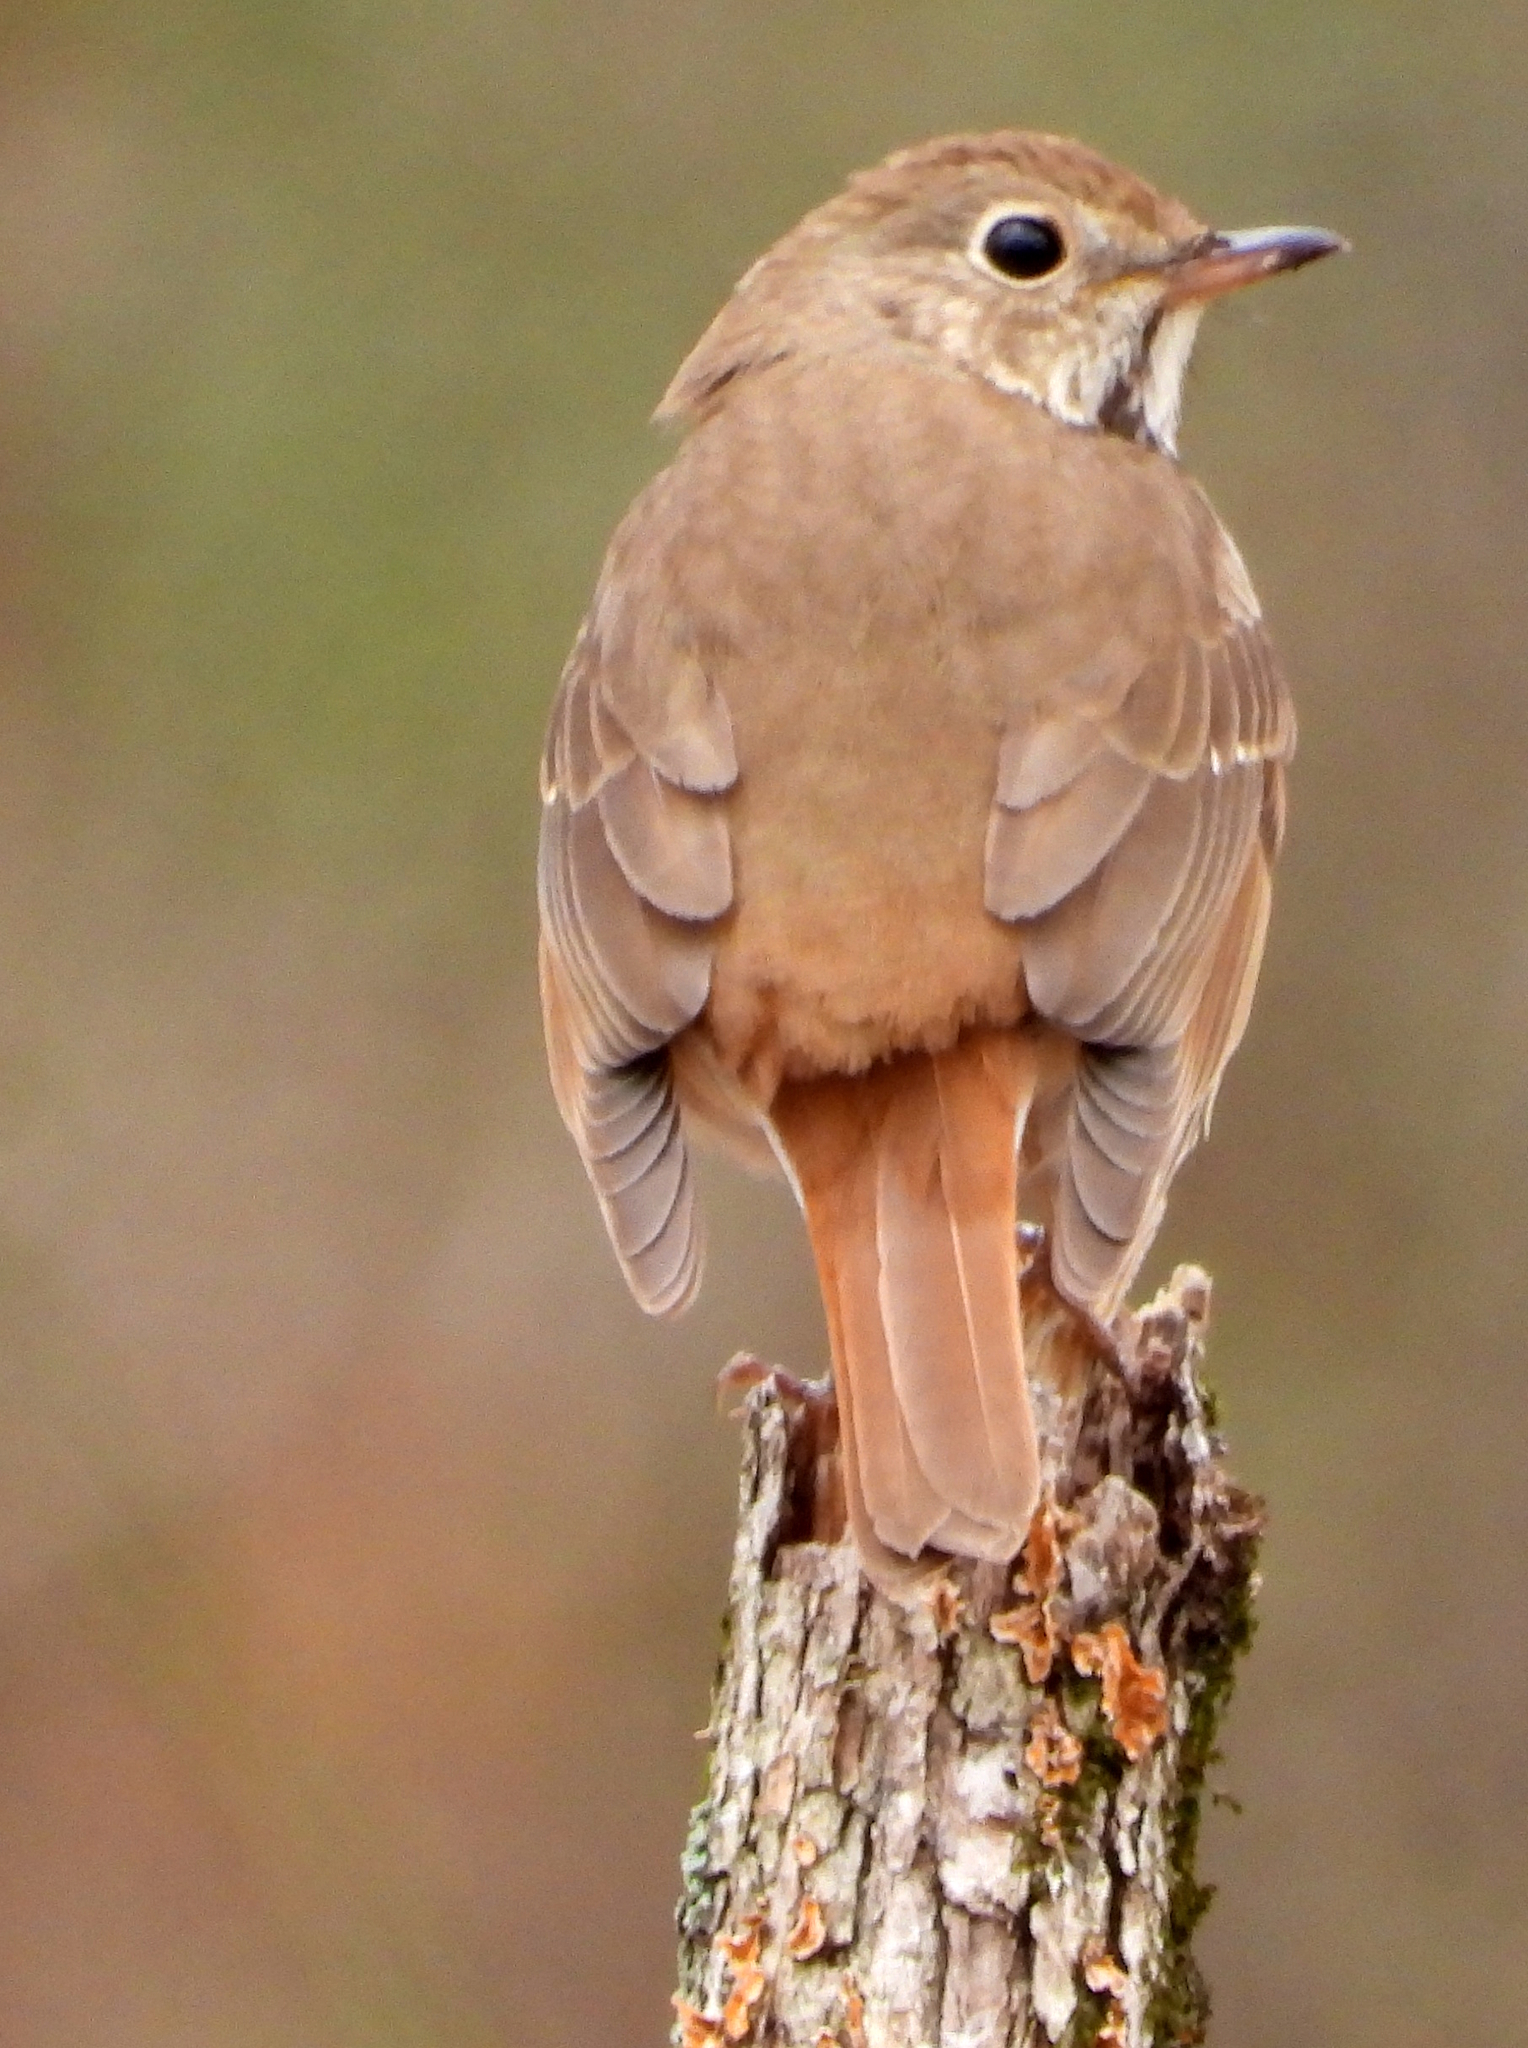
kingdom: Animalia
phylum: Chordata
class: Aves
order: Passeriformes
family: Turdidae
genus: Catharus
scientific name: Catharus guttatus
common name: Hermit thrush
